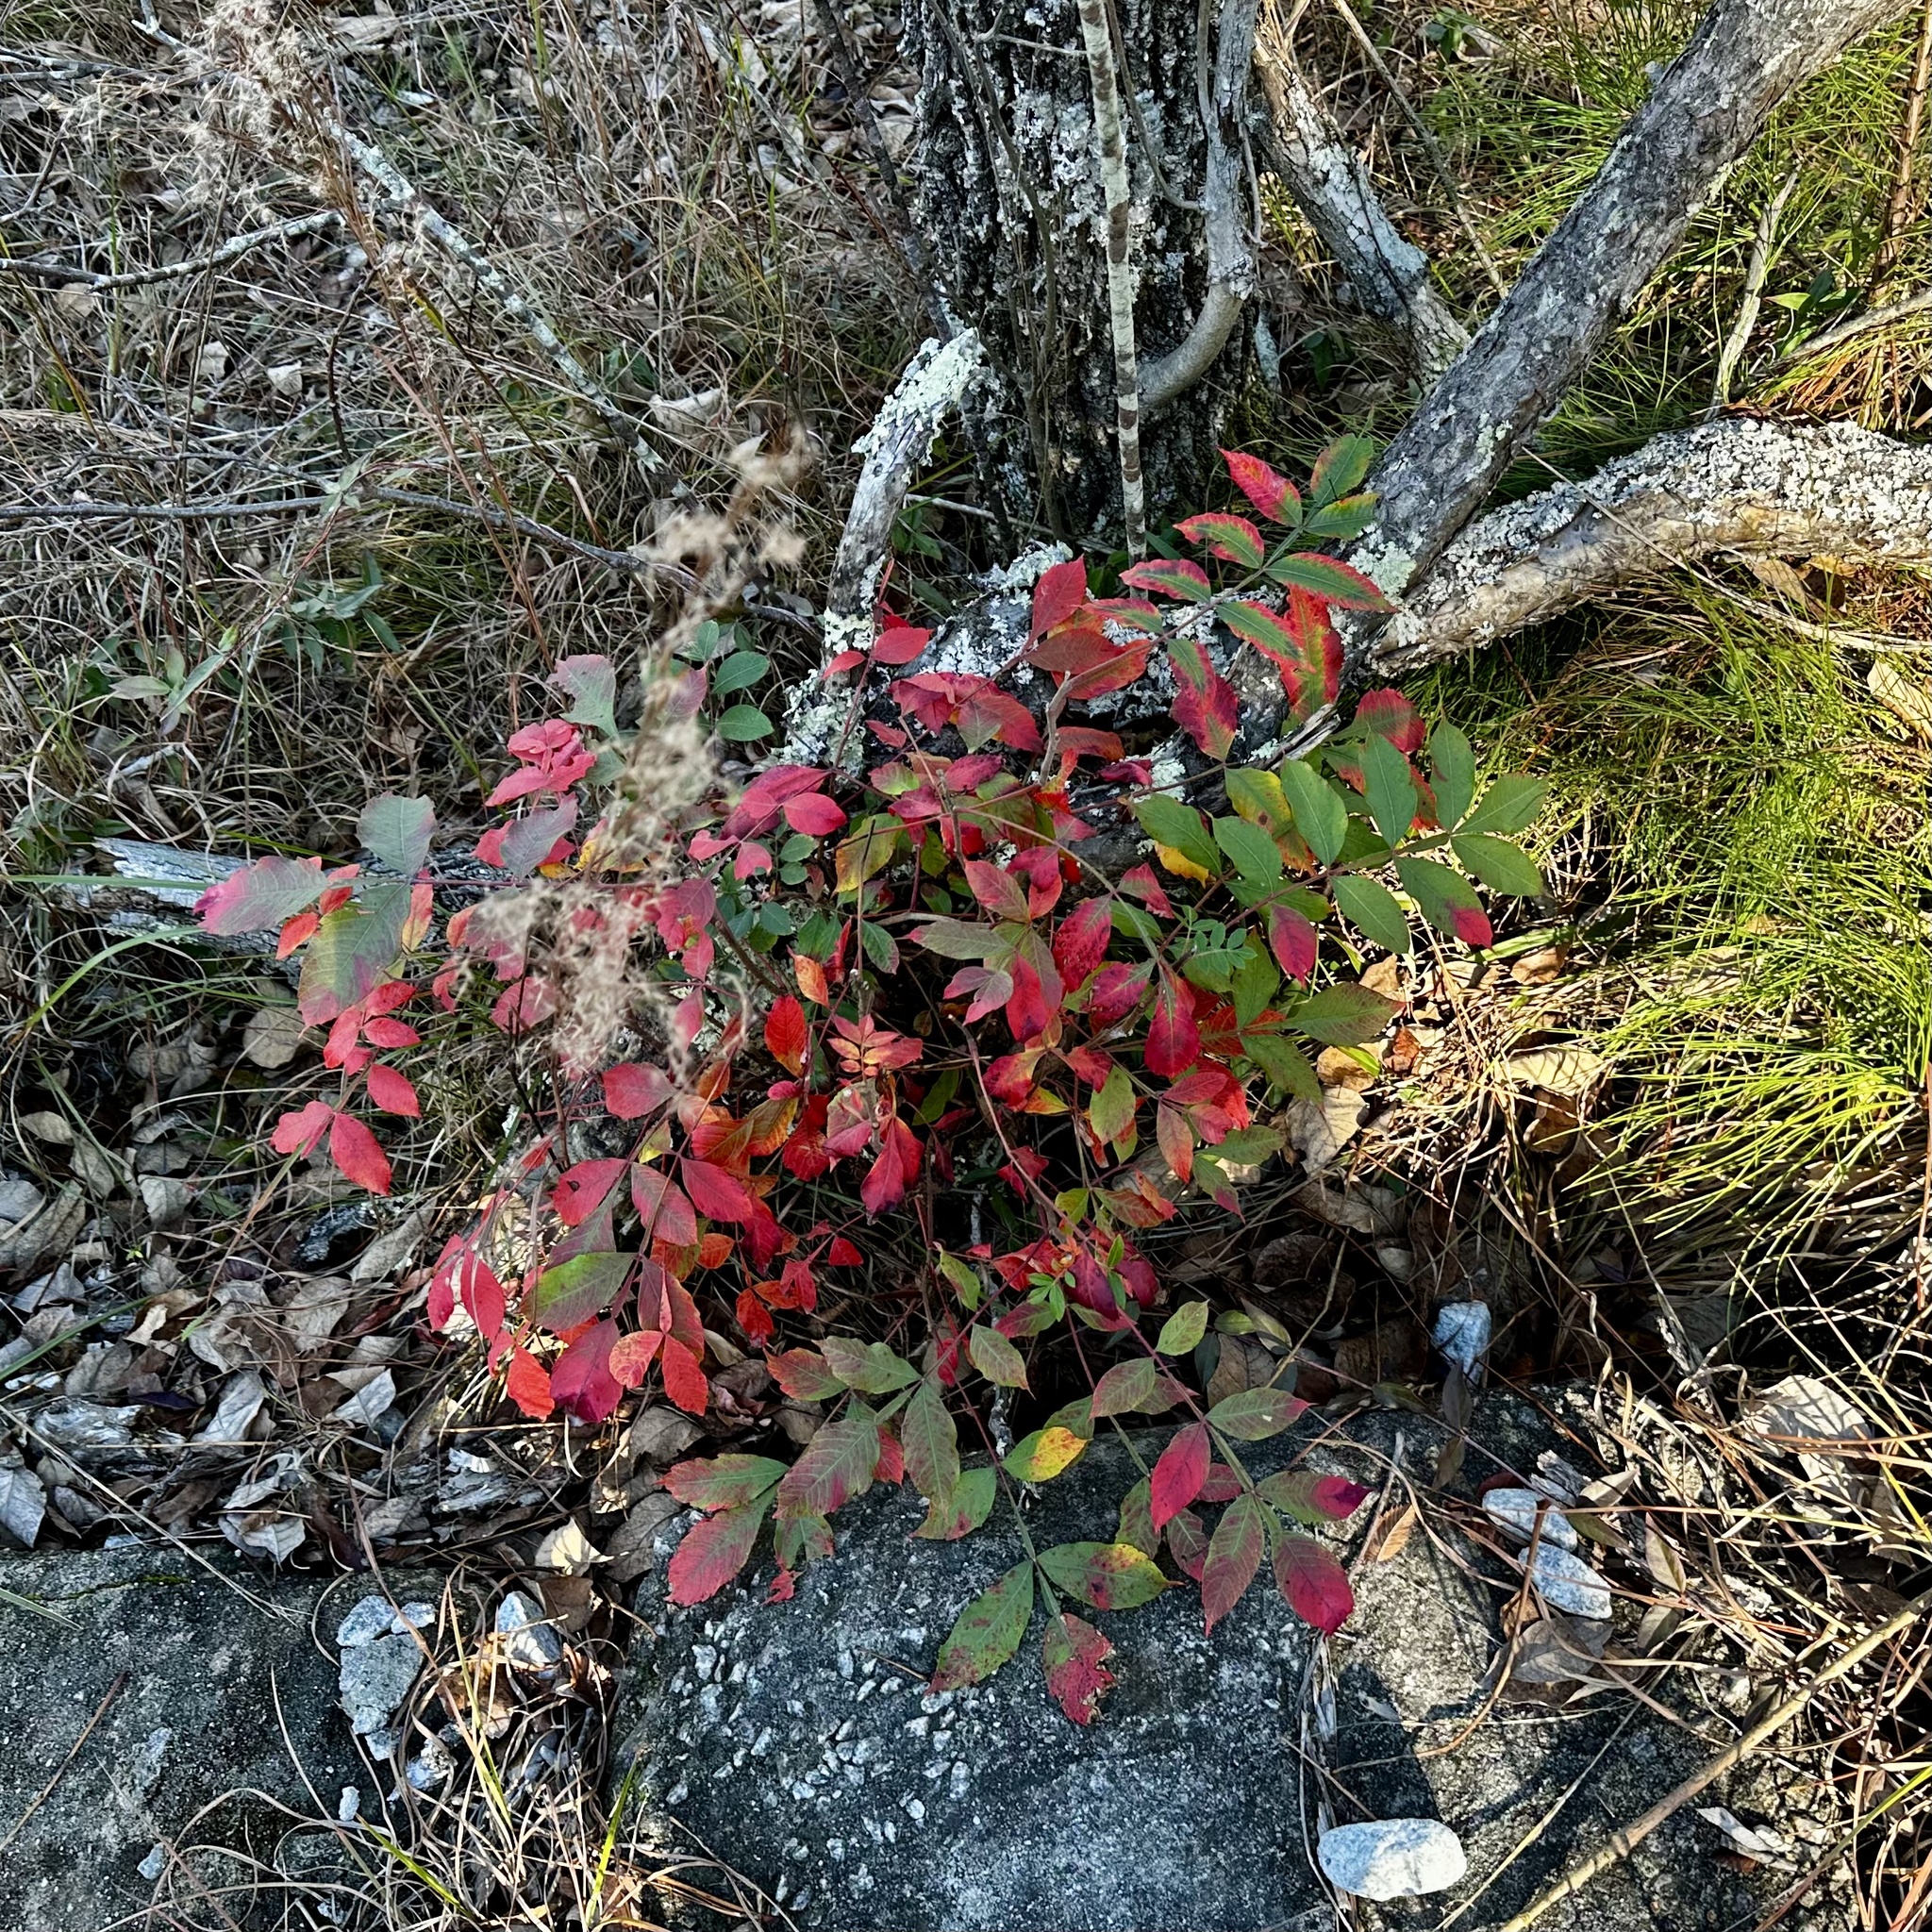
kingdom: Plantae
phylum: Tracheophyta
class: Magnoliopsida
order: Sapindales
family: Anacardiaceae
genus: Rhus
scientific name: Rhus copallina
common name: Shining sumac
